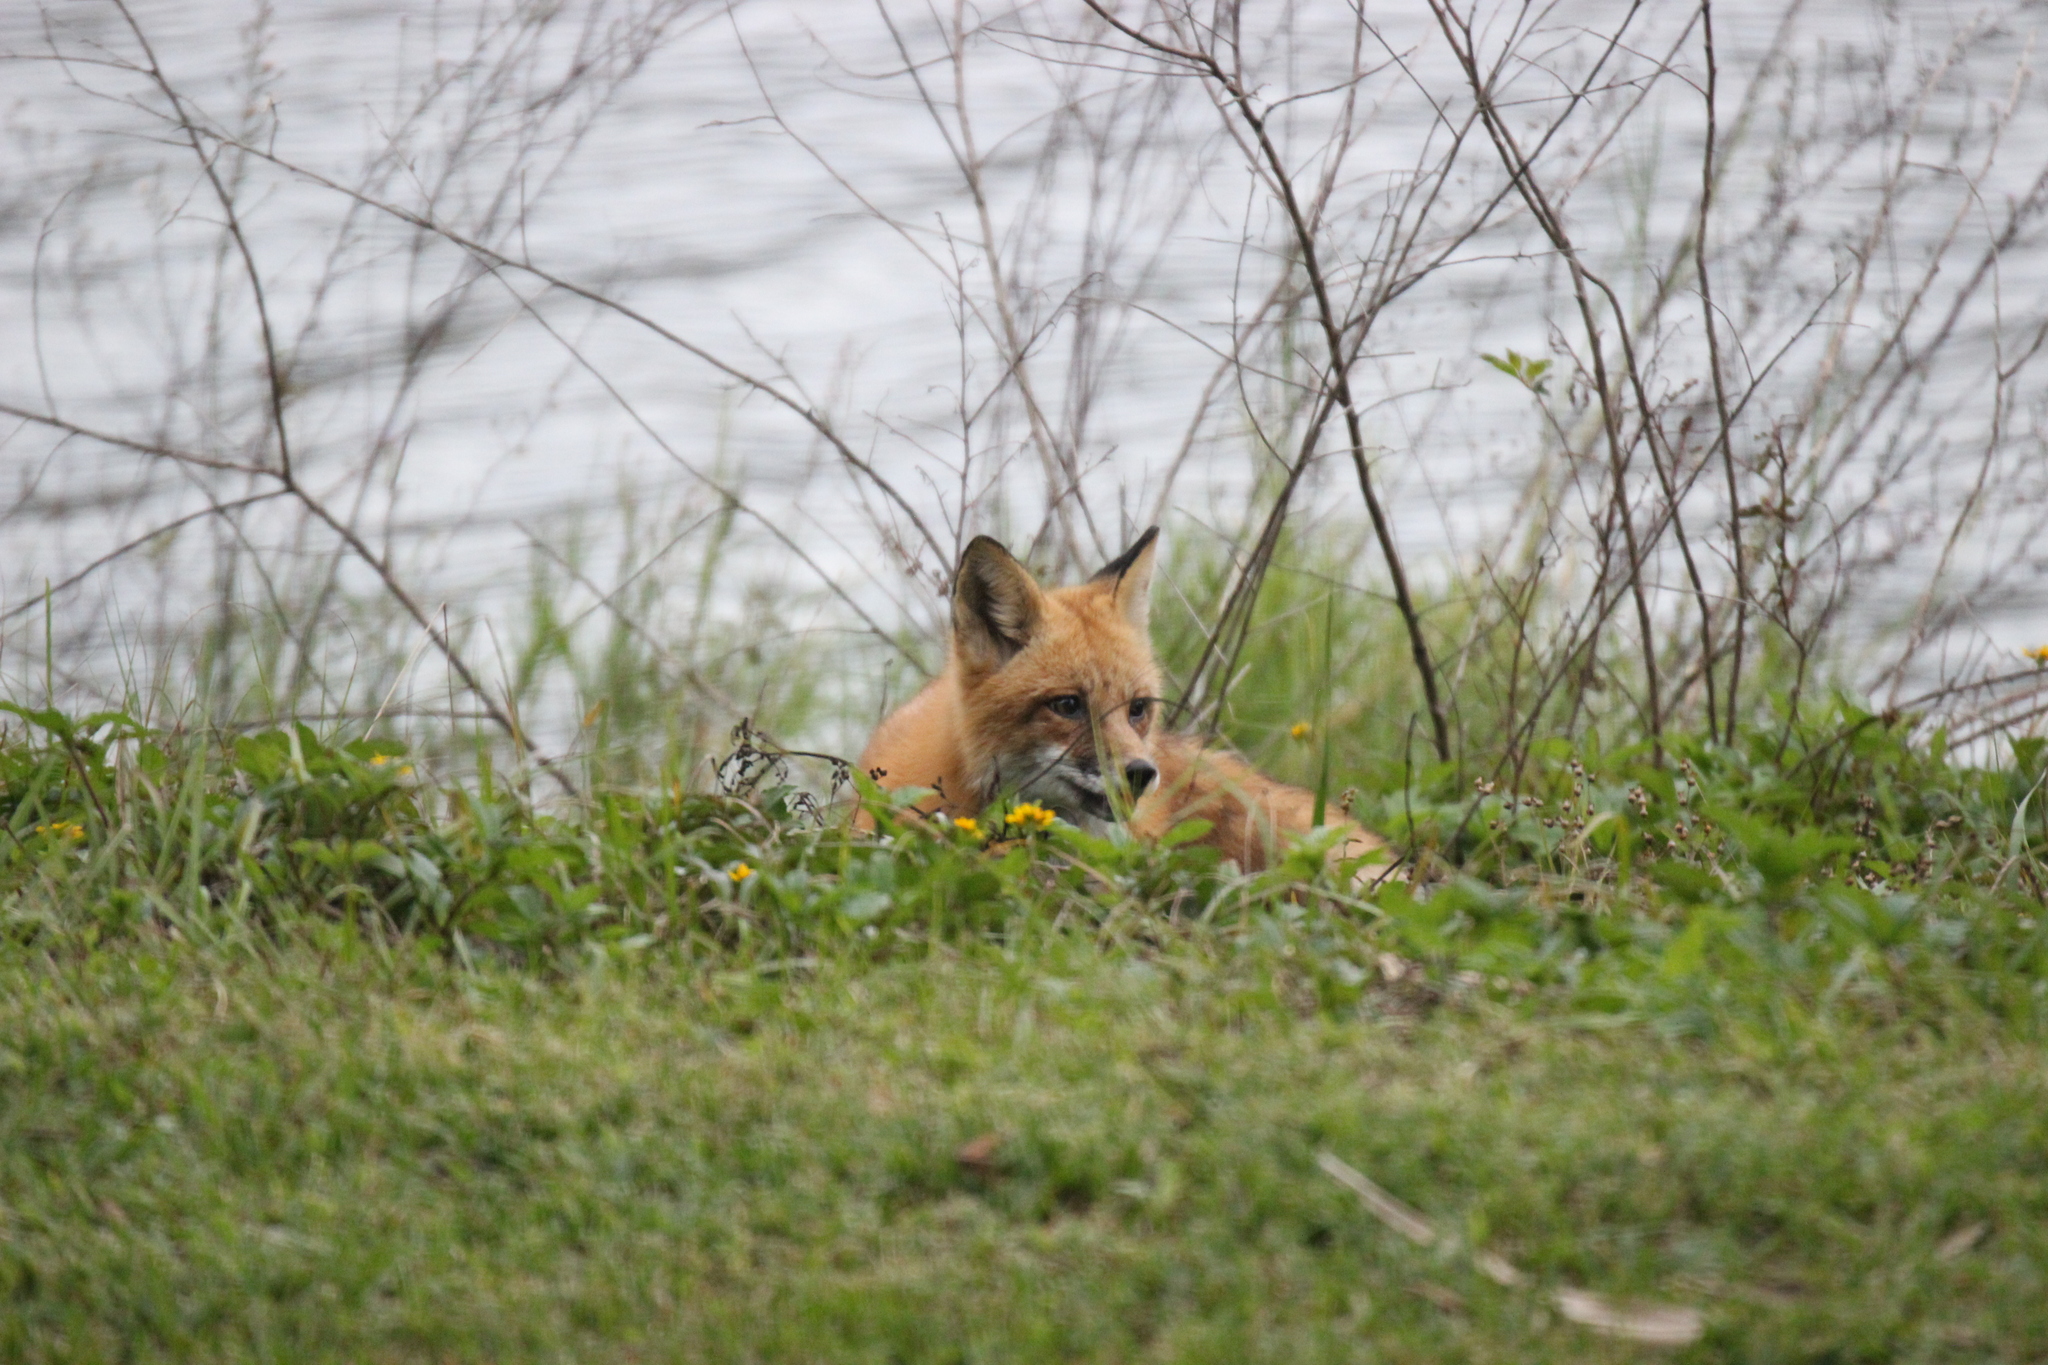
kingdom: Animalia
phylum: Chordata
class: Mammalia
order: Carnivora
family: Canidae
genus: Vulpes
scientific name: Vulpes vulpes
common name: Red fox
